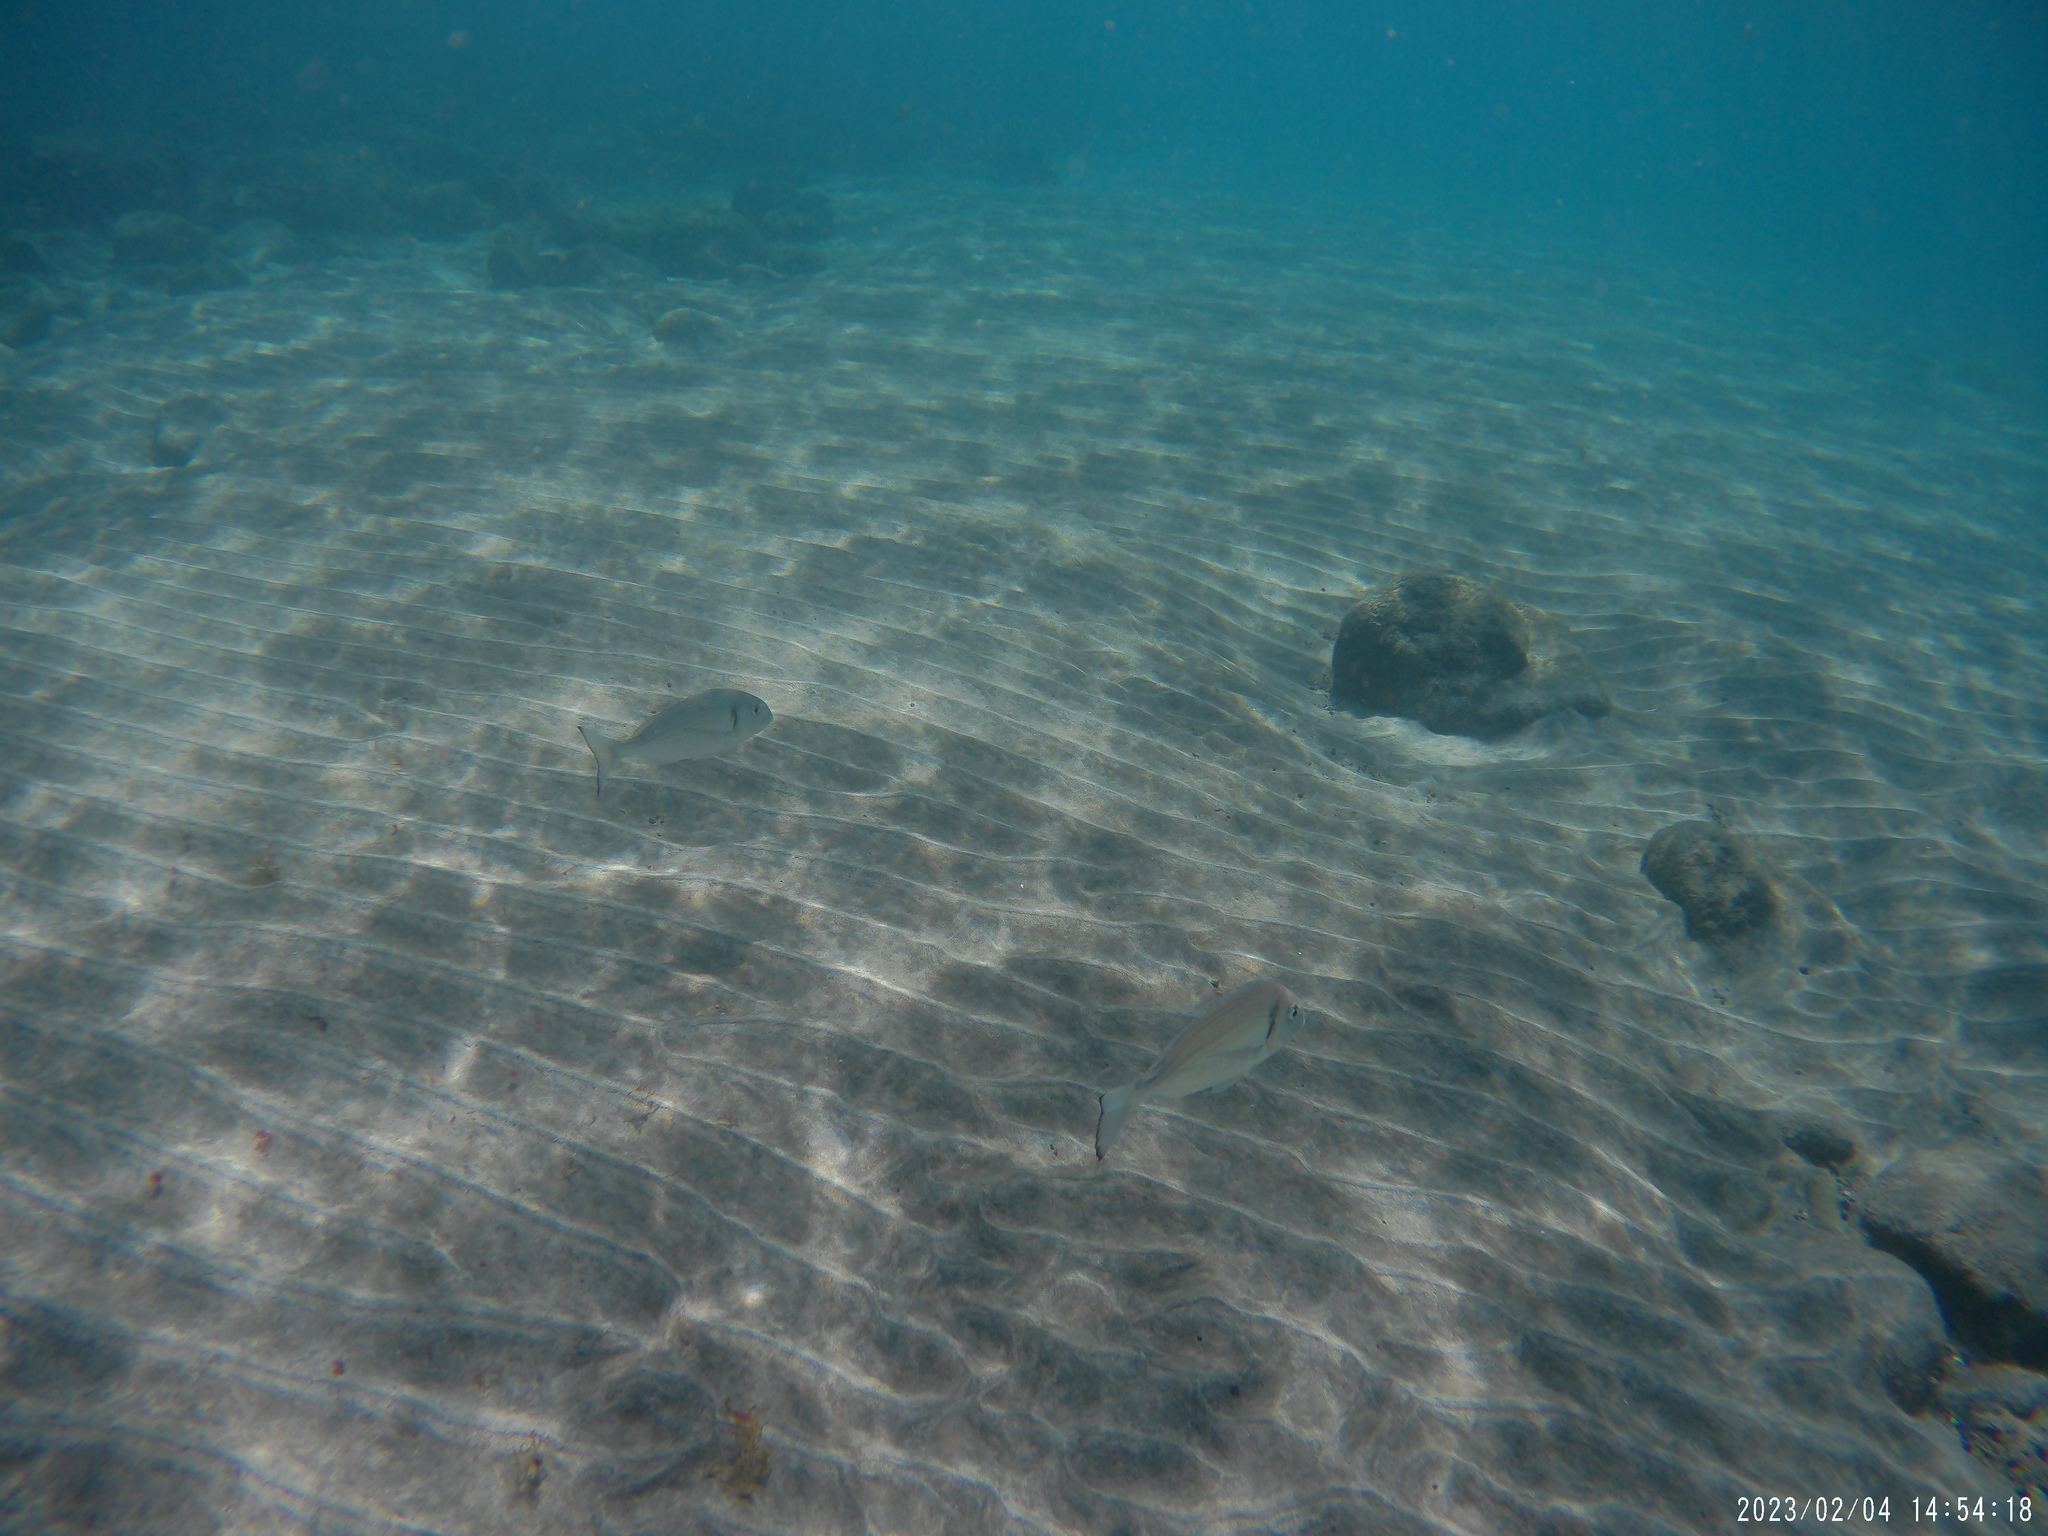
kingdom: Animalia
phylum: Chordata
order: Perciformes
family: Sparidae
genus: Sparus
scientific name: Sparus aurata
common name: Gilthead
